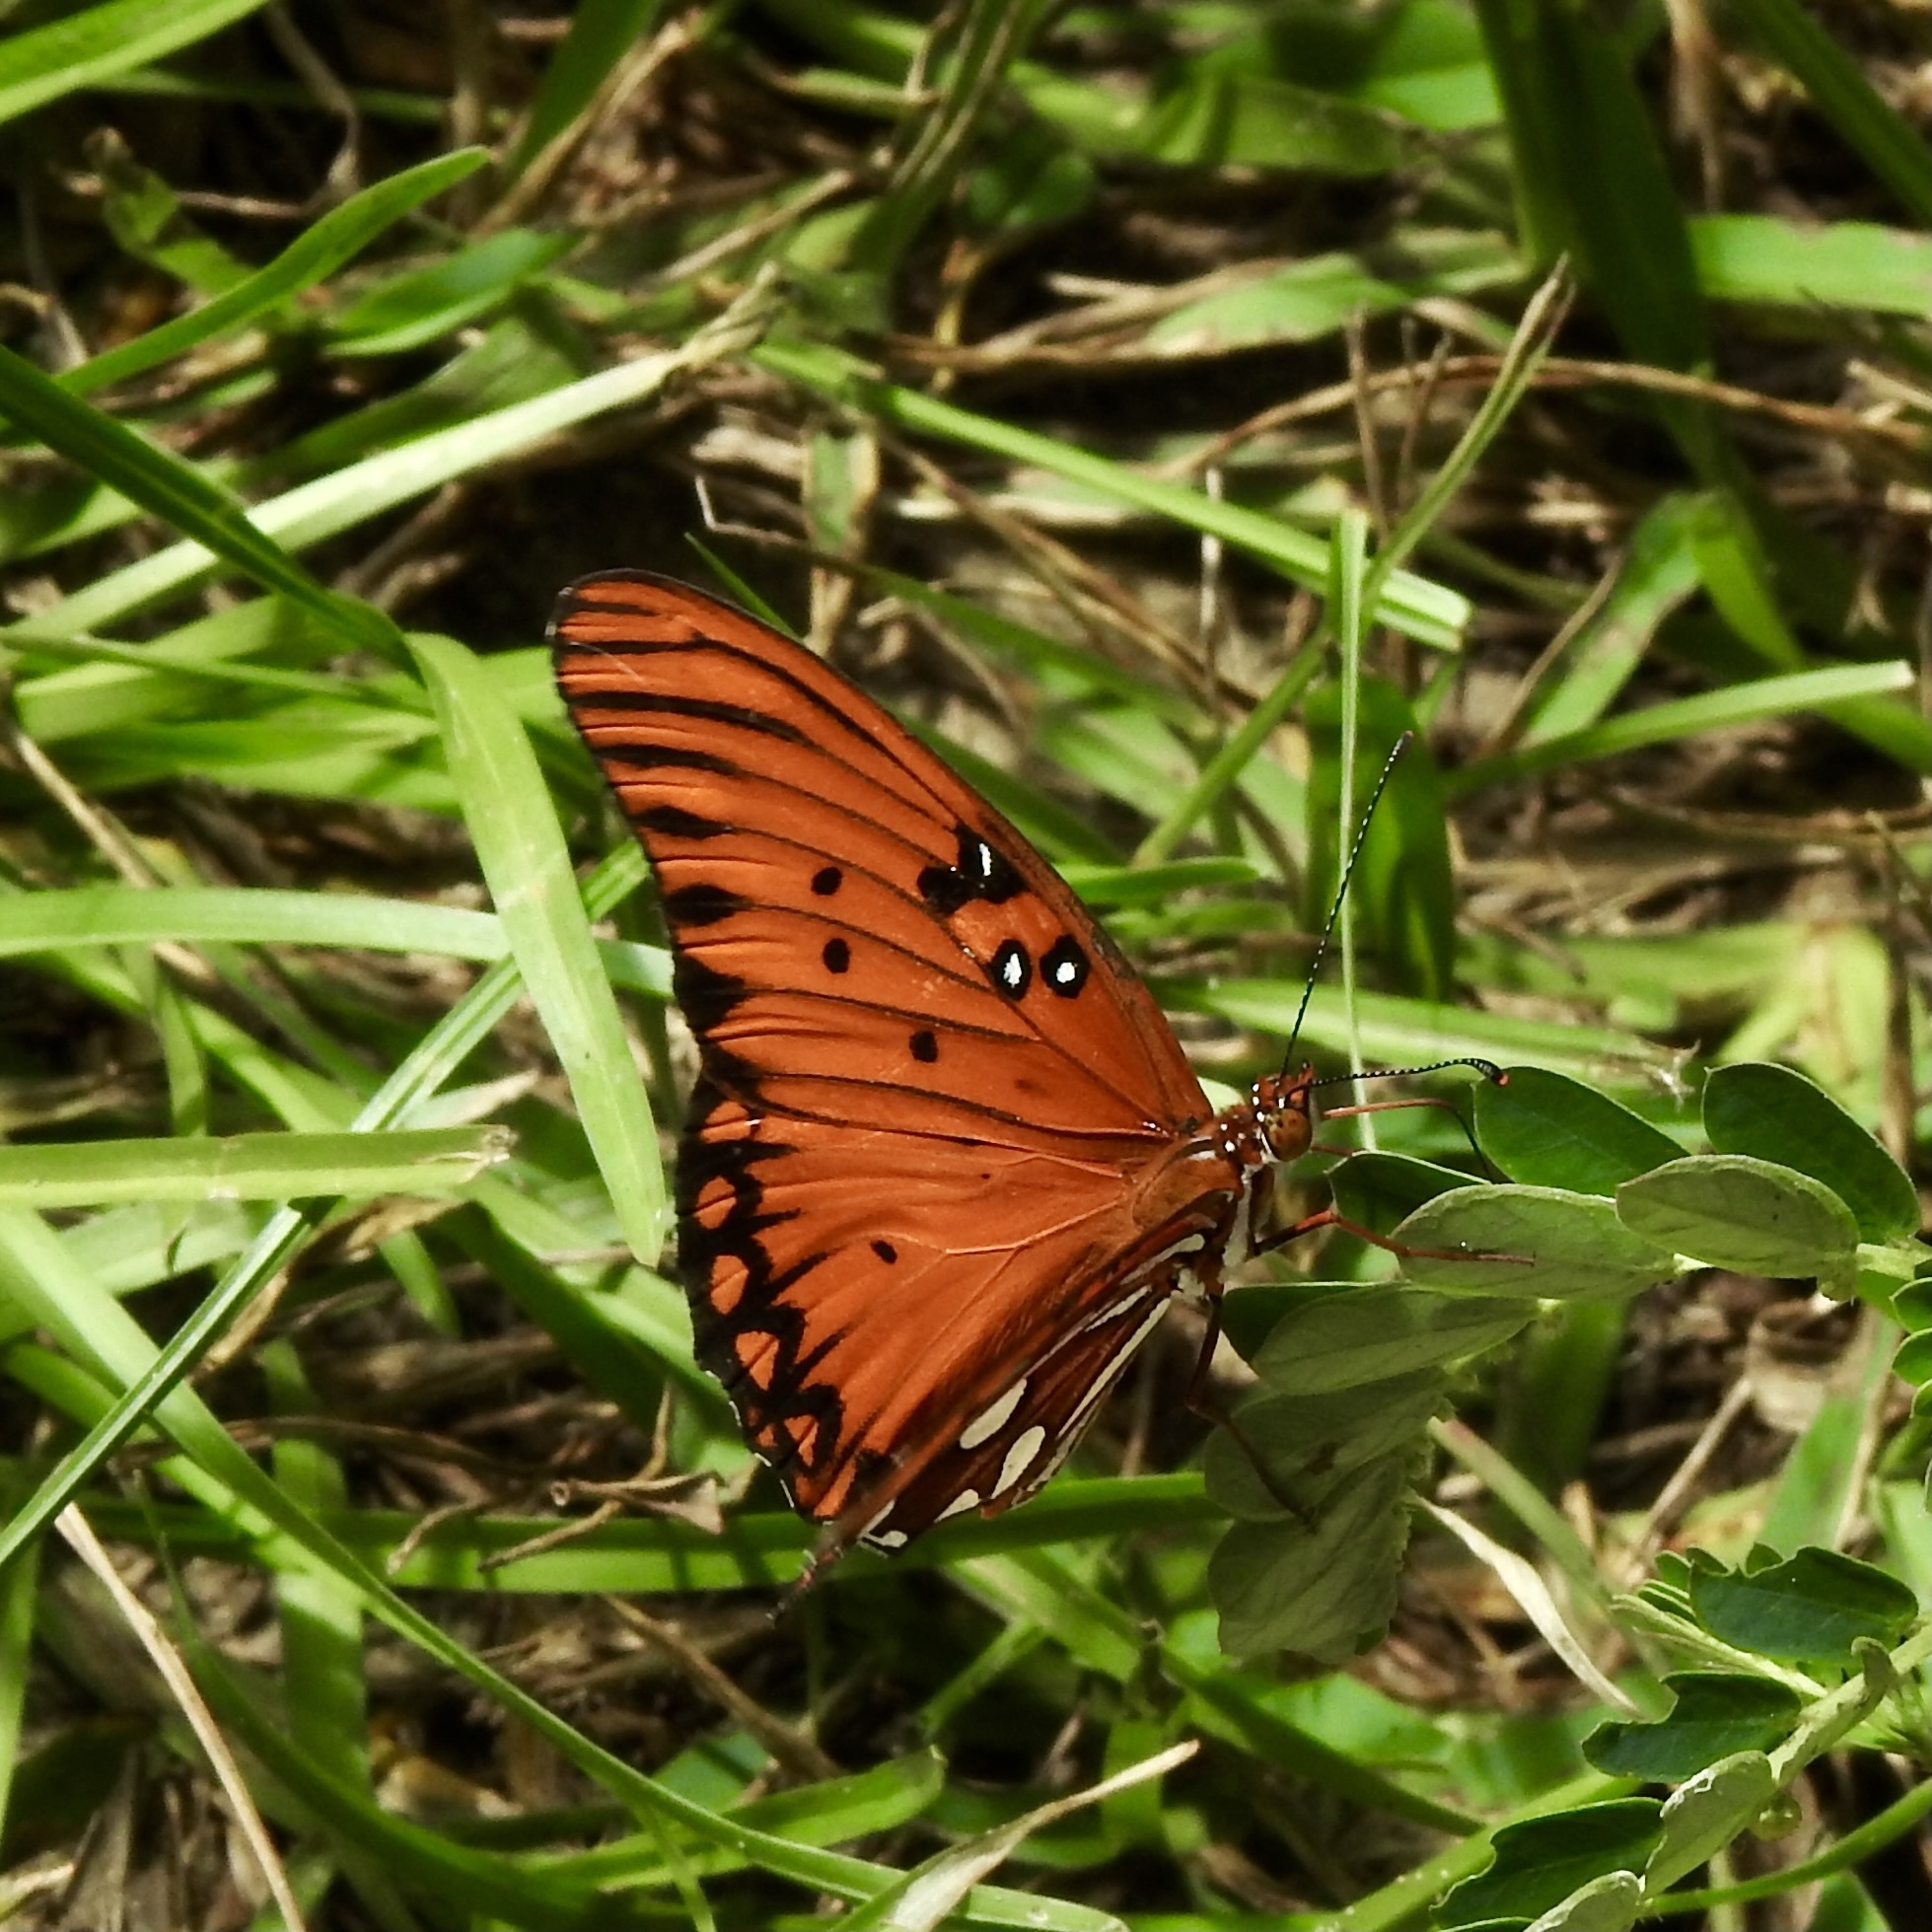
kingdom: Animalia
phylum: Arthropoda
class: Insecta
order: Lepidoptera
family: Nymphalidae
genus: Dione
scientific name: Dione vanillae
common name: Gulf fritillary
